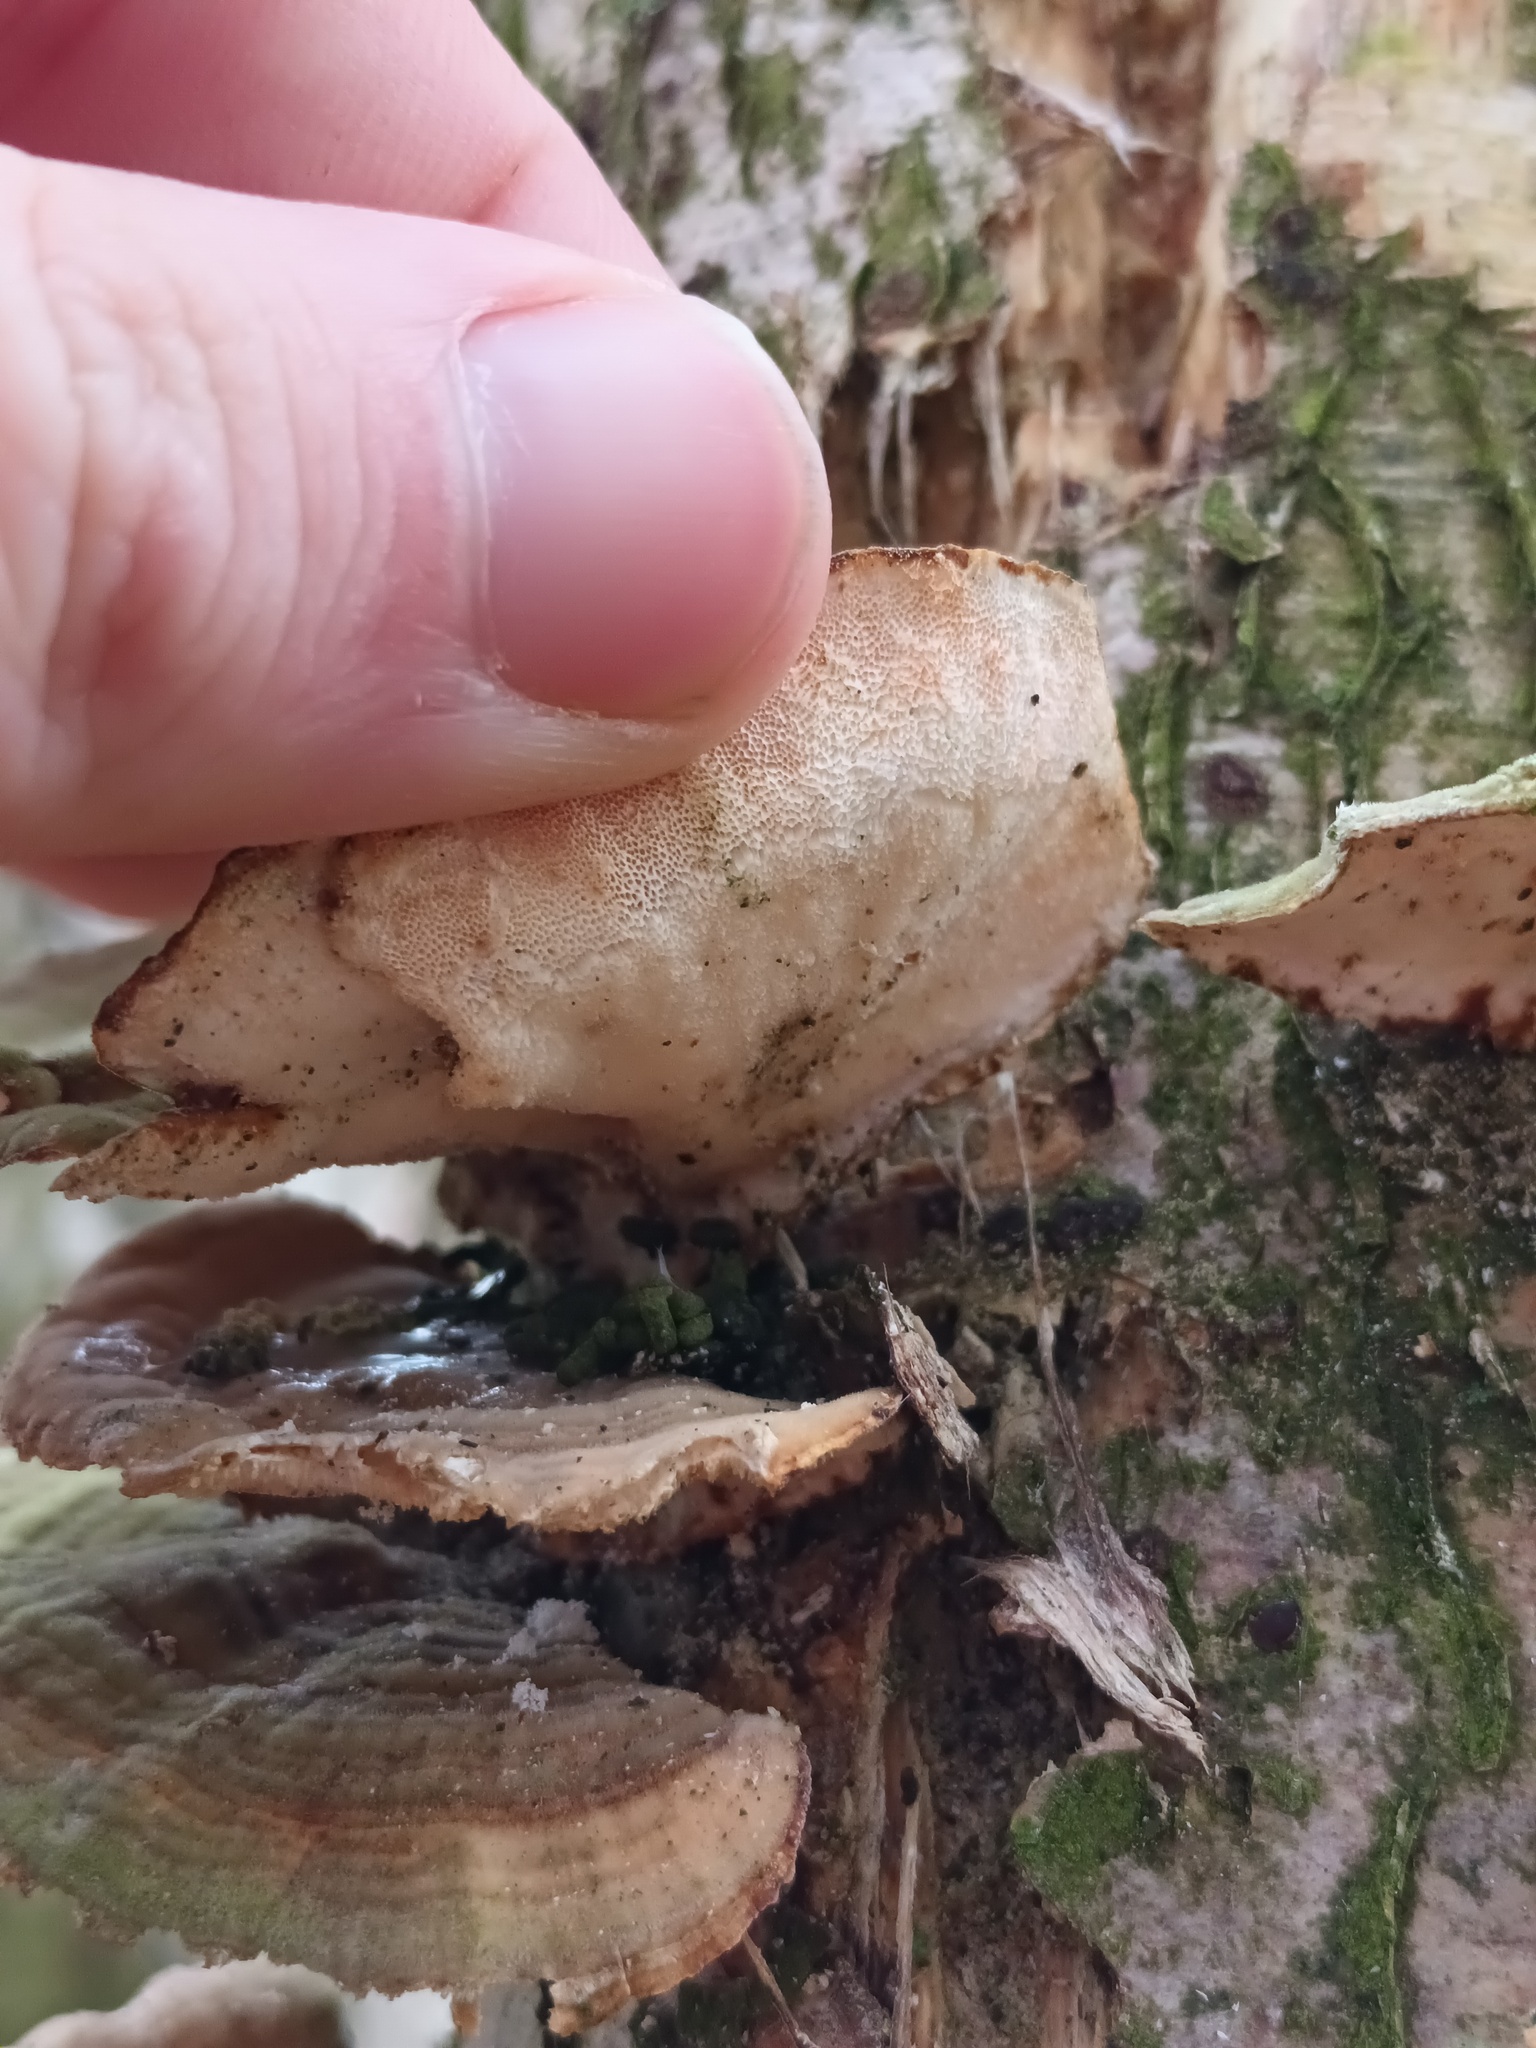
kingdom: Fungi
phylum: Basidiomycota
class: Agaricomycetes
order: Polyporales
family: Polyporaceae
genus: Trametes
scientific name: Trametes versicolor
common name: Turkeytail
